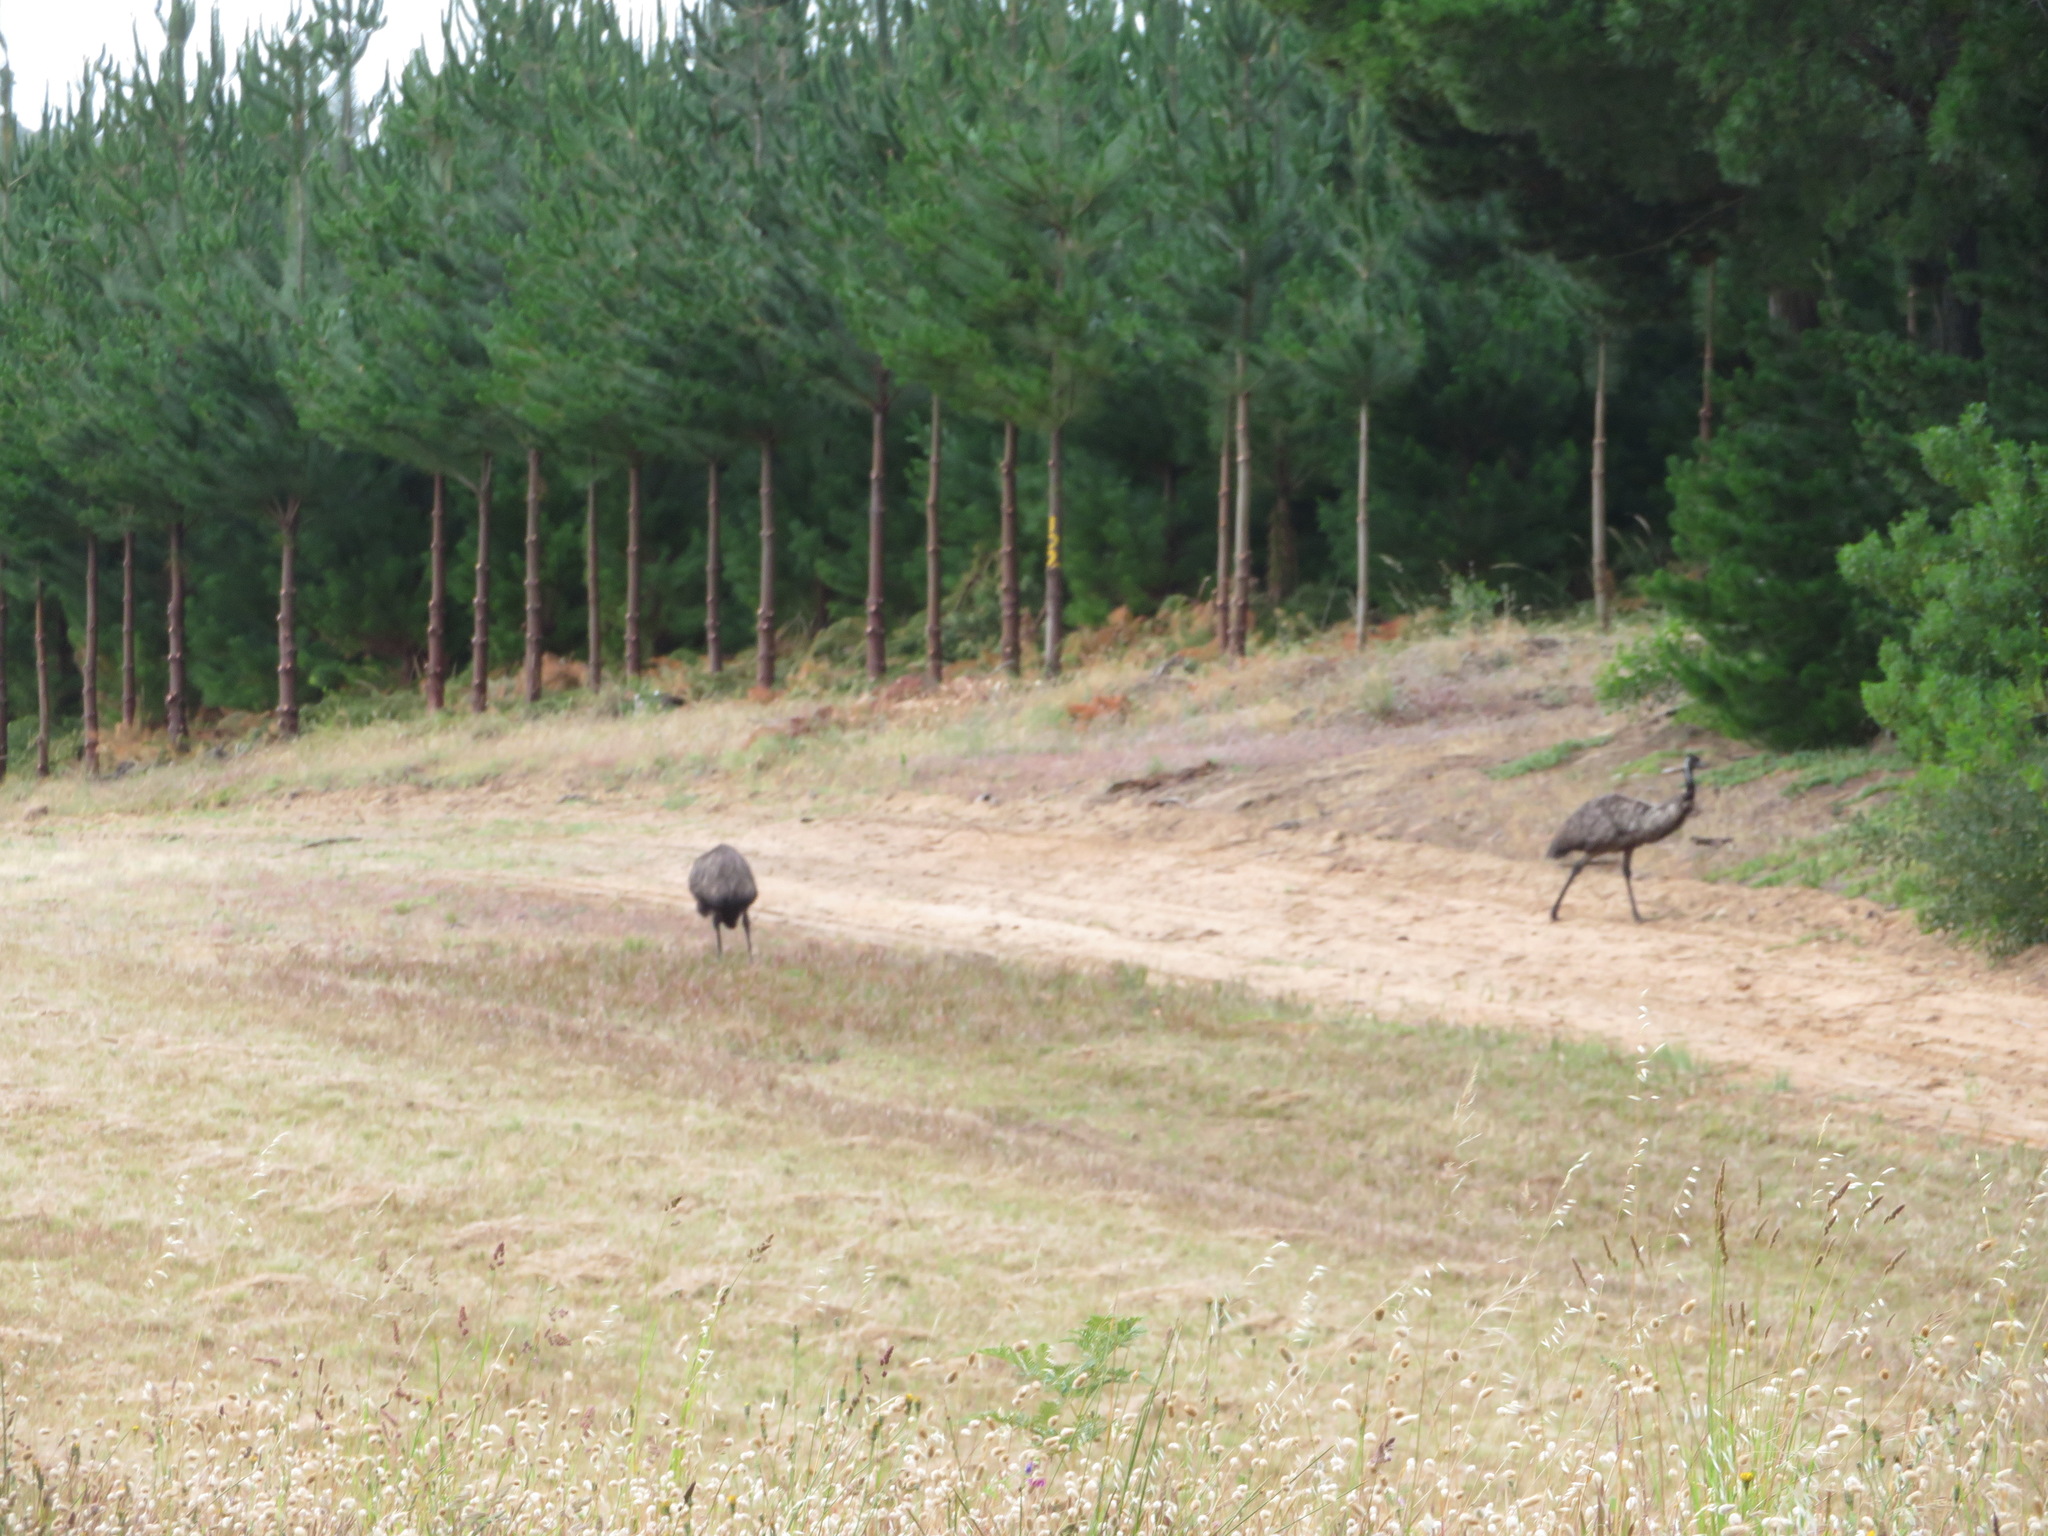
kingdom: Animalia
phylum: Chordata
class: Aves
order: Casuariiformes
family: Dromaiidae
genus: Dromaius
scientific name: Dromaius novaehollandiae
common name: Emu
